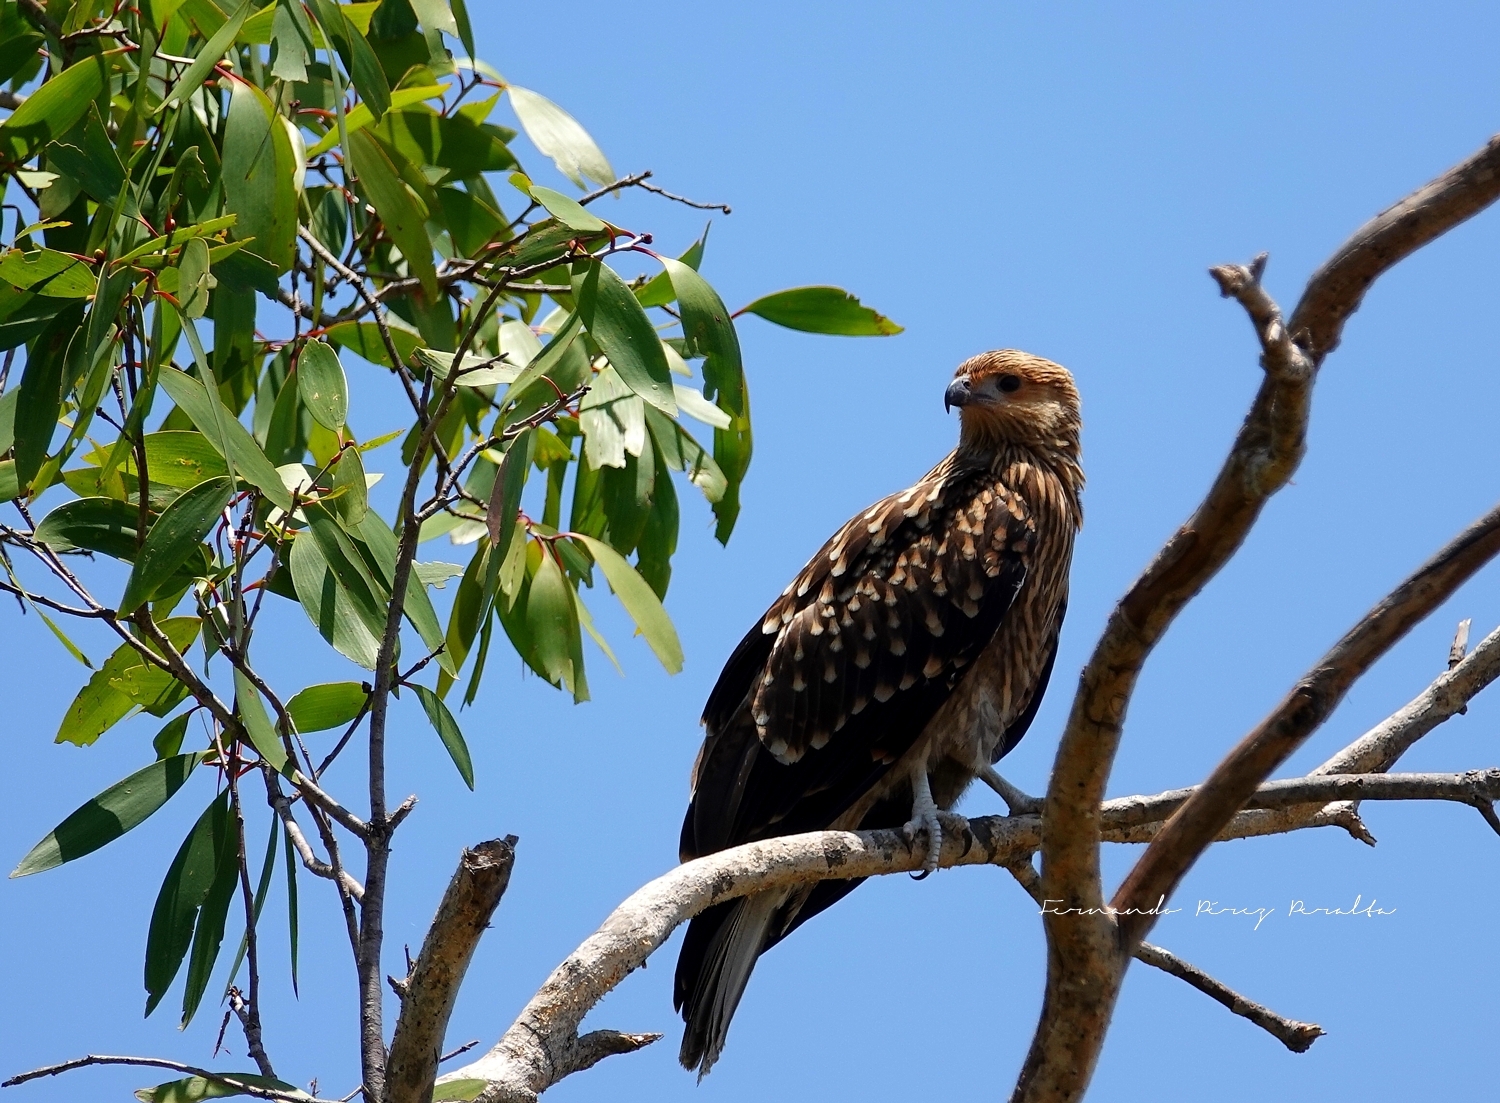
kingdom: Animalia
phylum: Chordata
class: Aves
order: Accipitriformes
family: Accipitridae
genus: Haliastur
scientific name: Haliastur sphenurus
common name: Whistling kite
